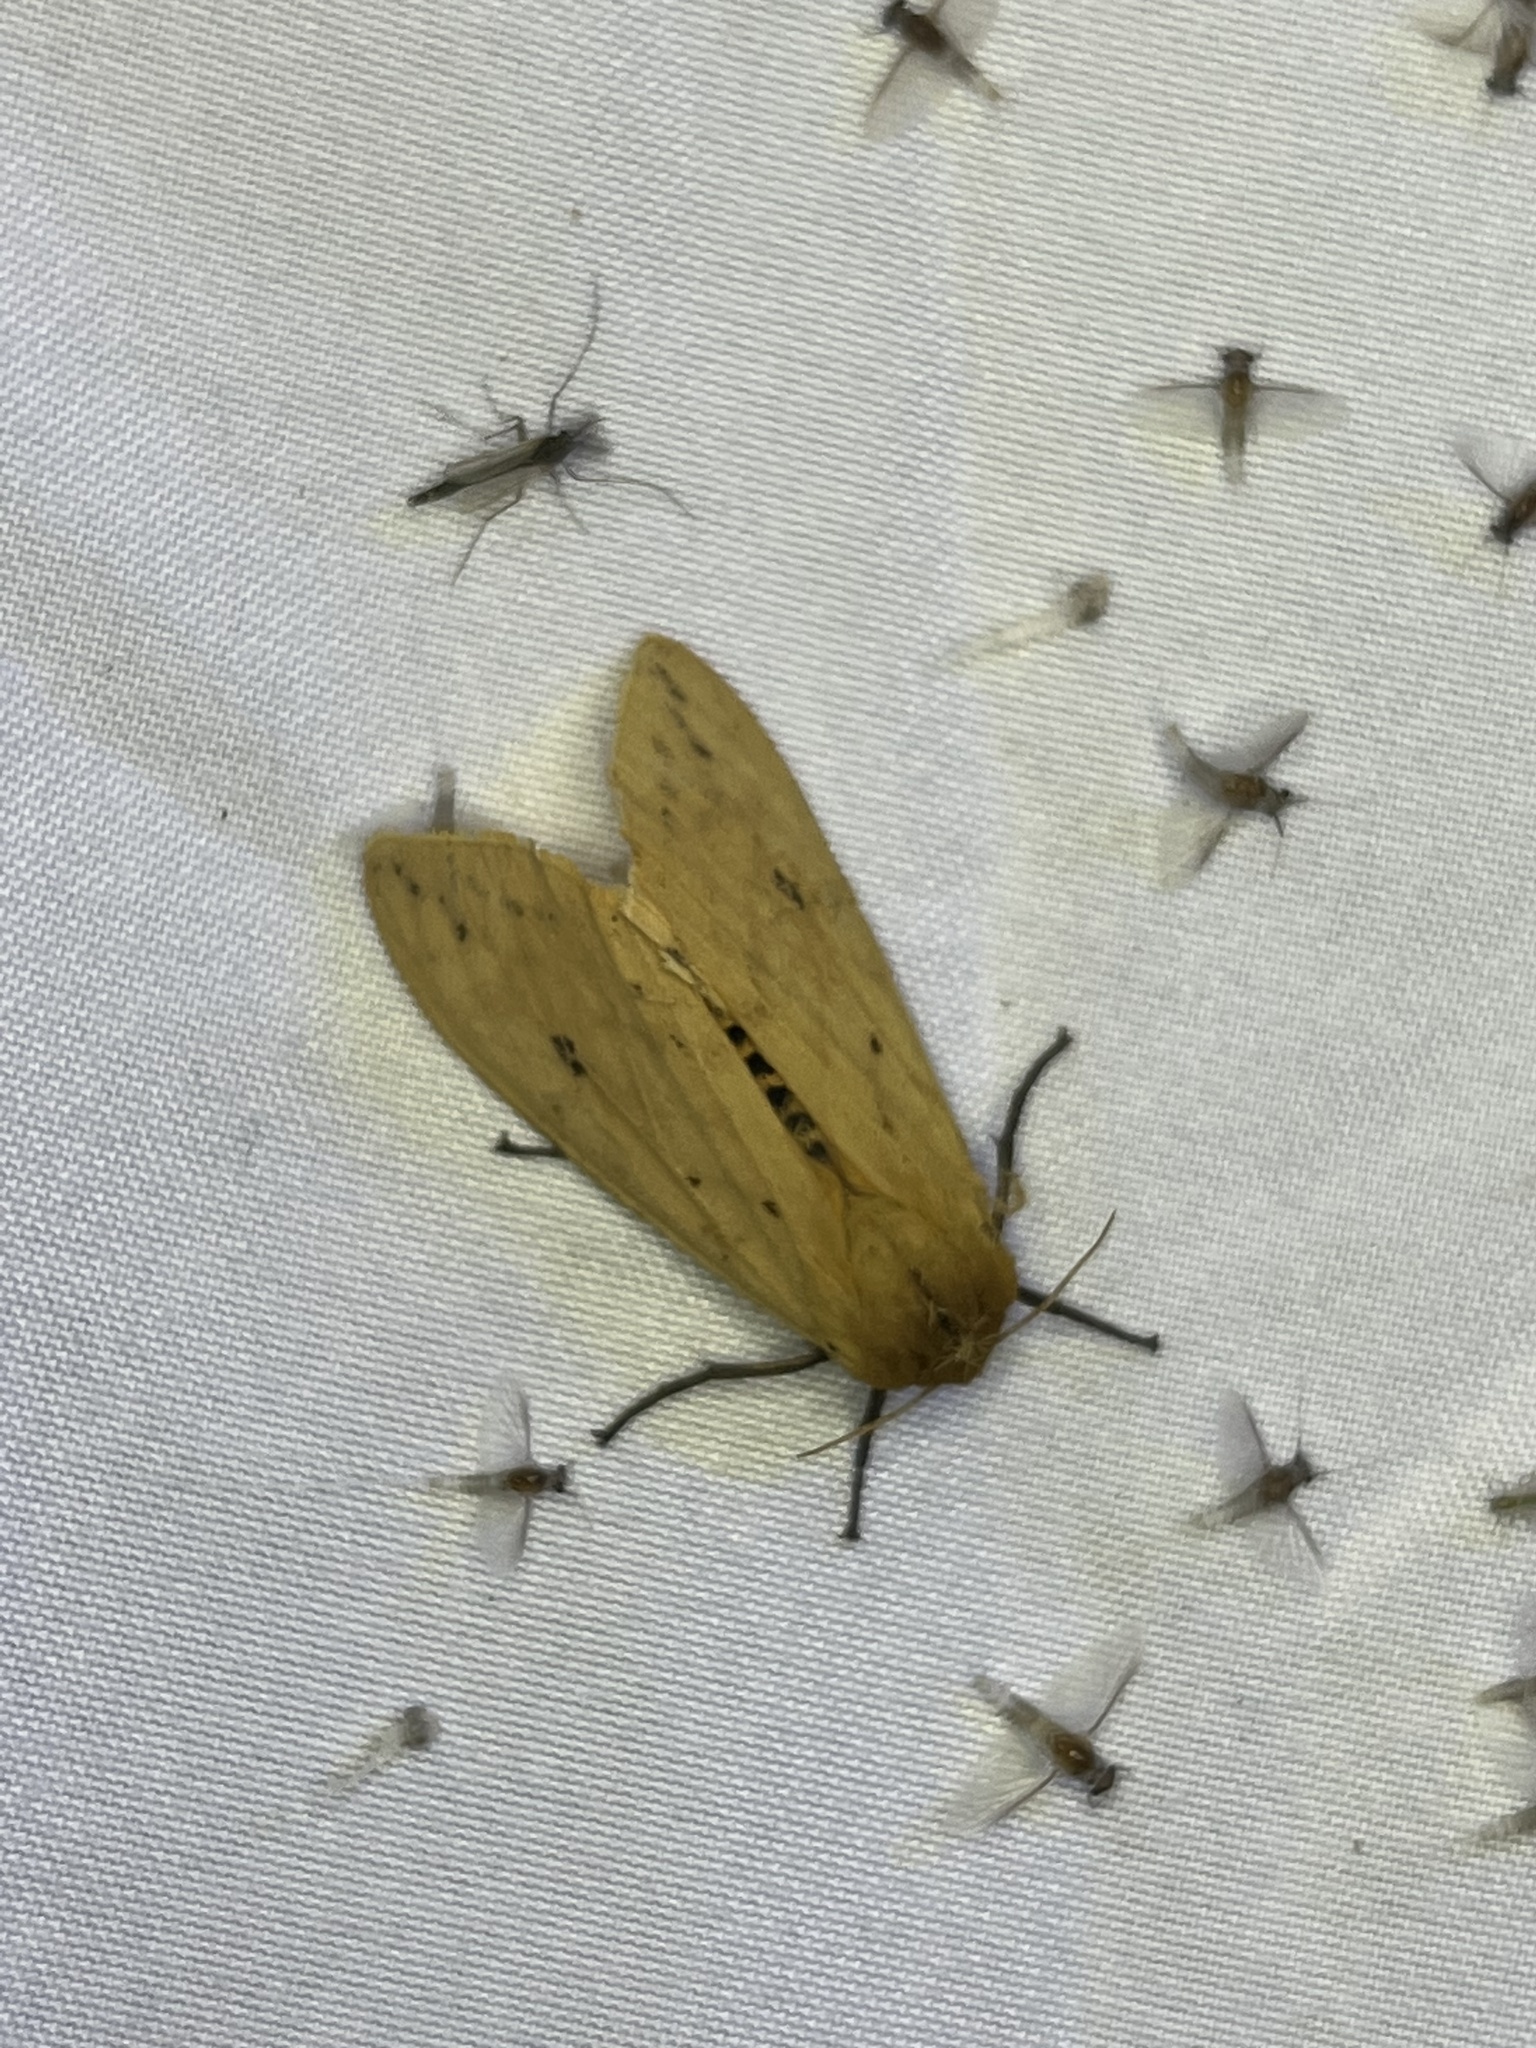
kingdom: Animalia
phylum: Arthropoda
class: Insecta
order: Lepidoptera
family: Erebidae
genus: Pyrrharctia
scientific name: Pyrrharctia isabella
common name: Isabella tiger moth
